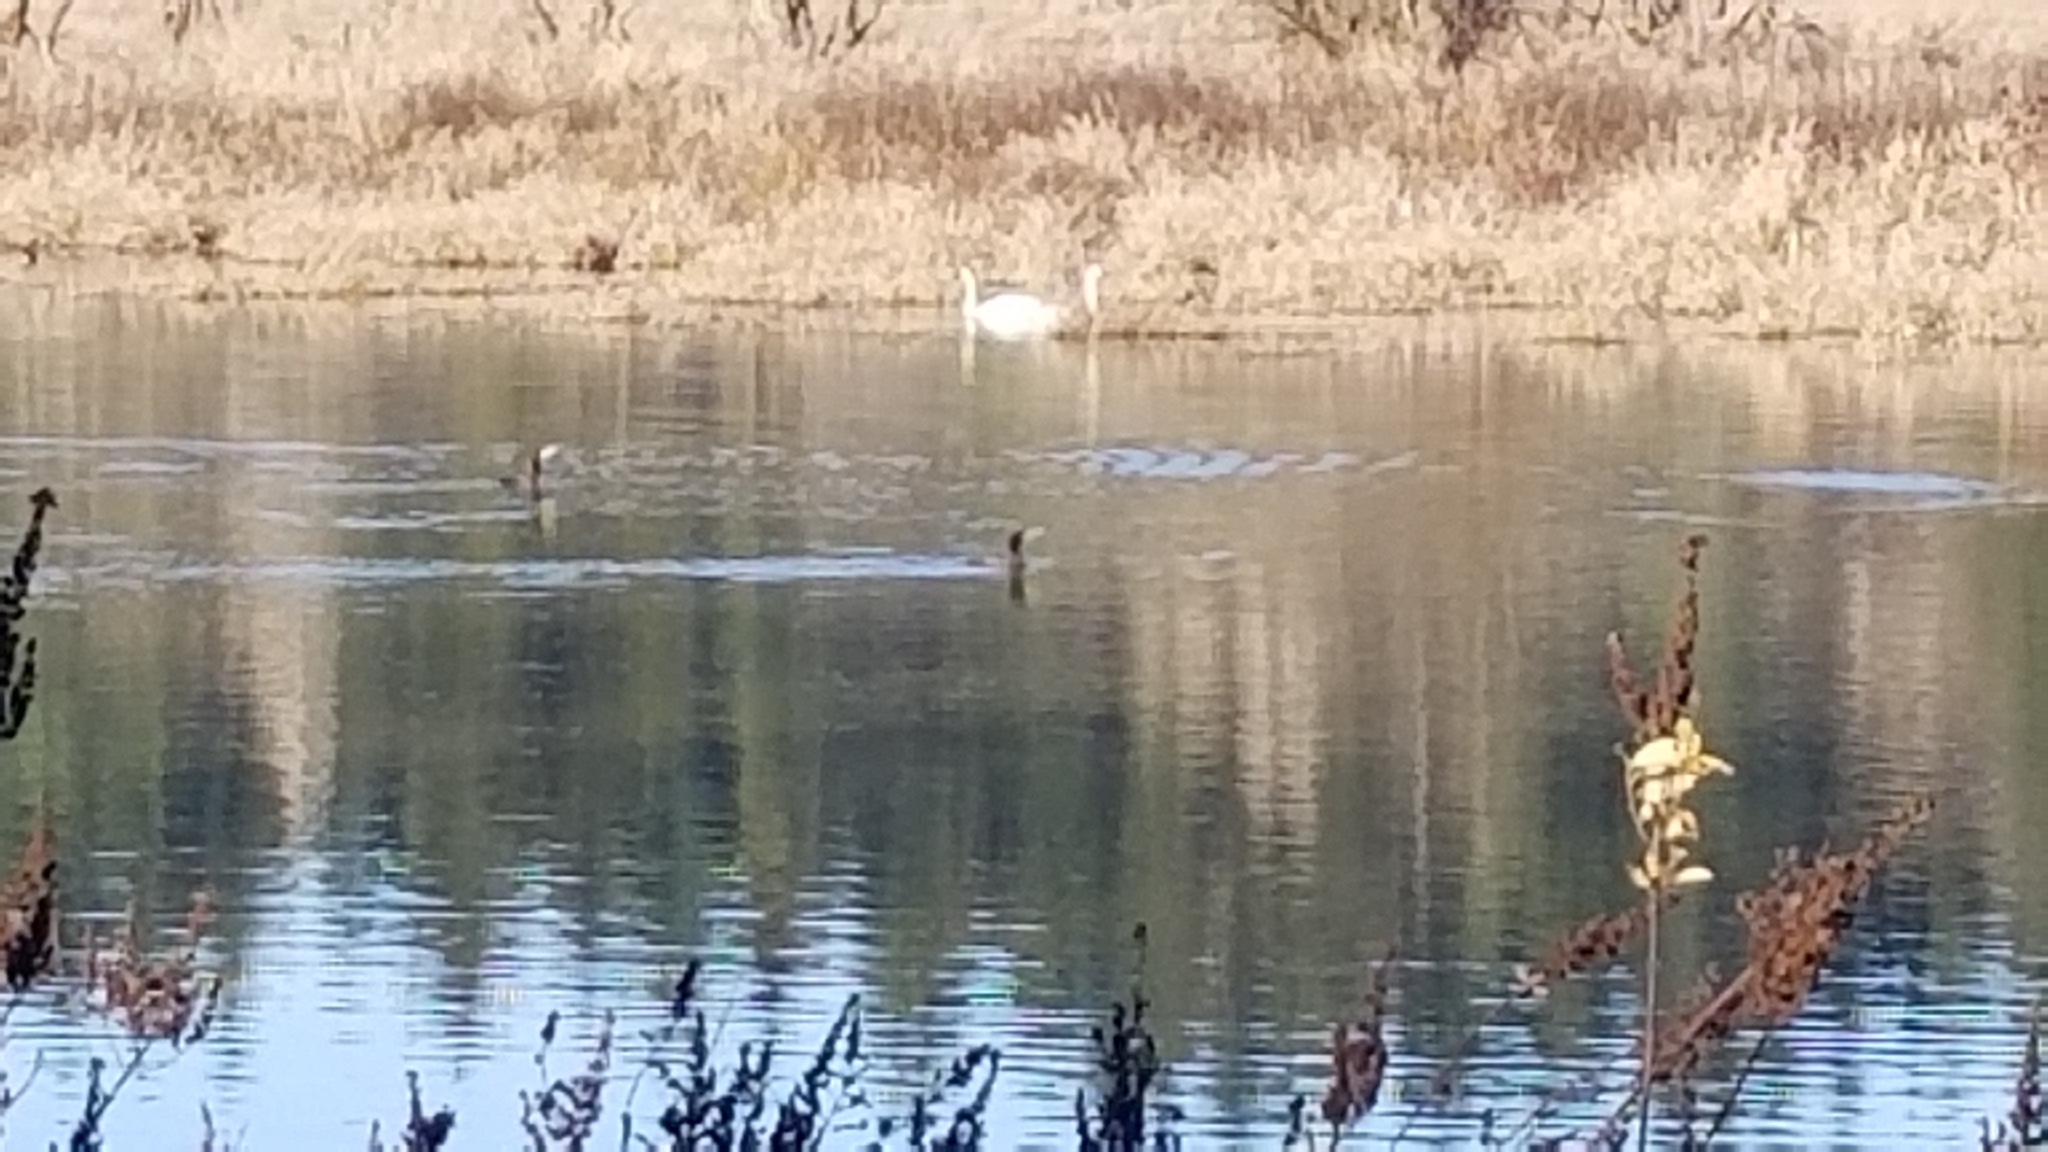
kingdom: Animalia
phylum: Chordata
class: Aves
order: Suliformes
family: Phalacrocoracidae
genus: Phalacrocorax
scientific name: Phalacrocorax auritus
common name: Double-crested cormorant
